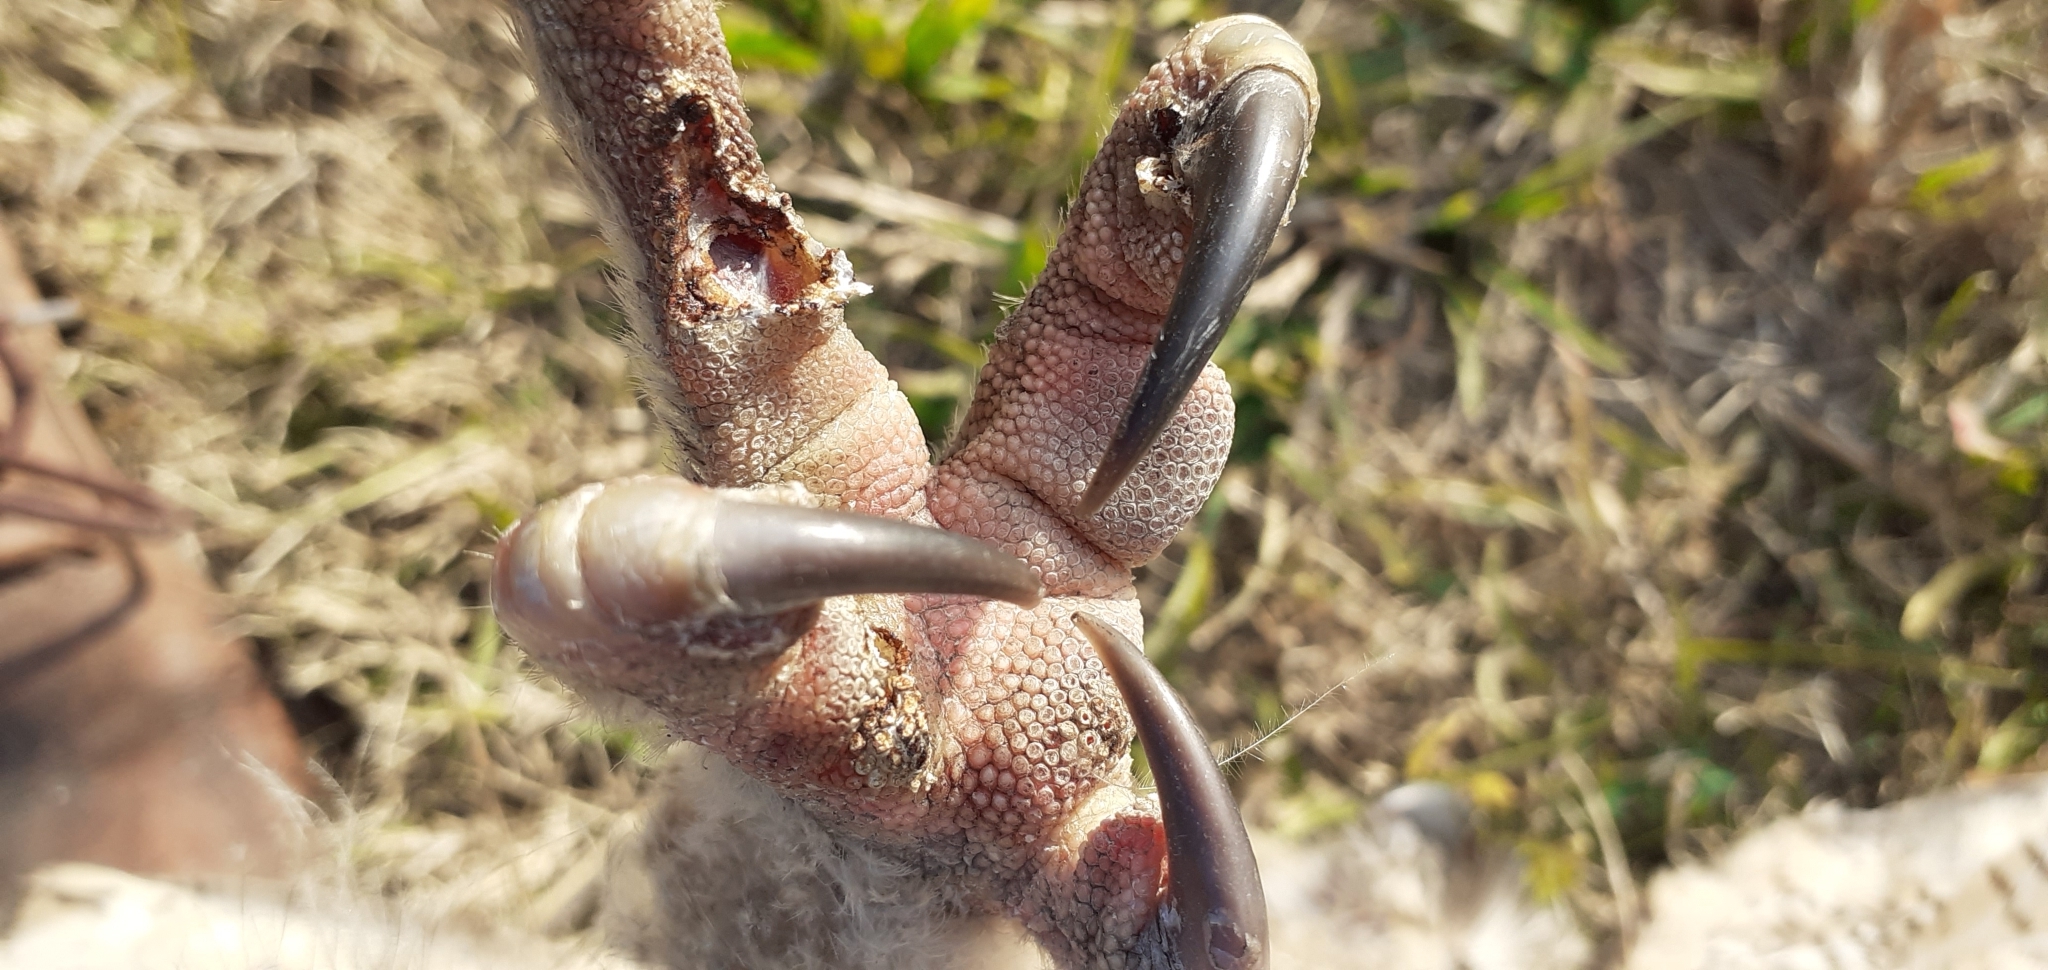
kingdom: Animalia
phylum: Chordata
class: Aves
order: Strigiformes
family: Strigidae
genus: Bubo
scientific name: Bubo virginianus
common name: Great horned owl
